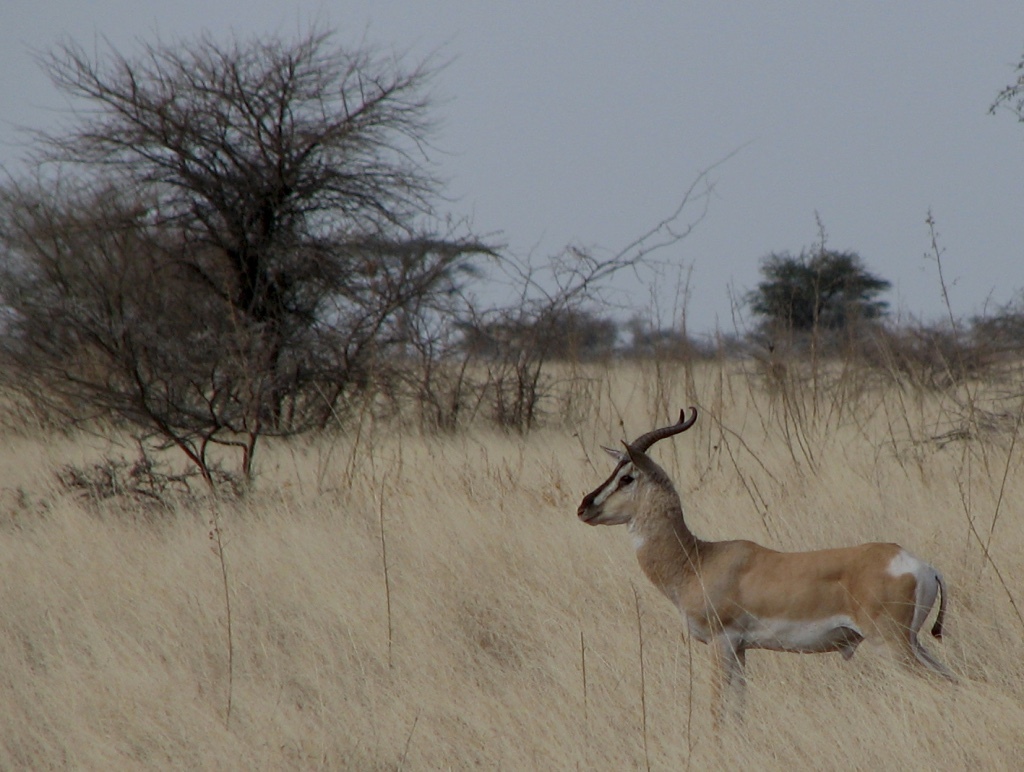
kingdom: Animalia
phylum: Chordata
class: Mammalia
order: Artiodactyla
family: Bovidae
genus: Nanger
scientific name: Nanger soemmerringii
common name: Soemmerring's gazelle
